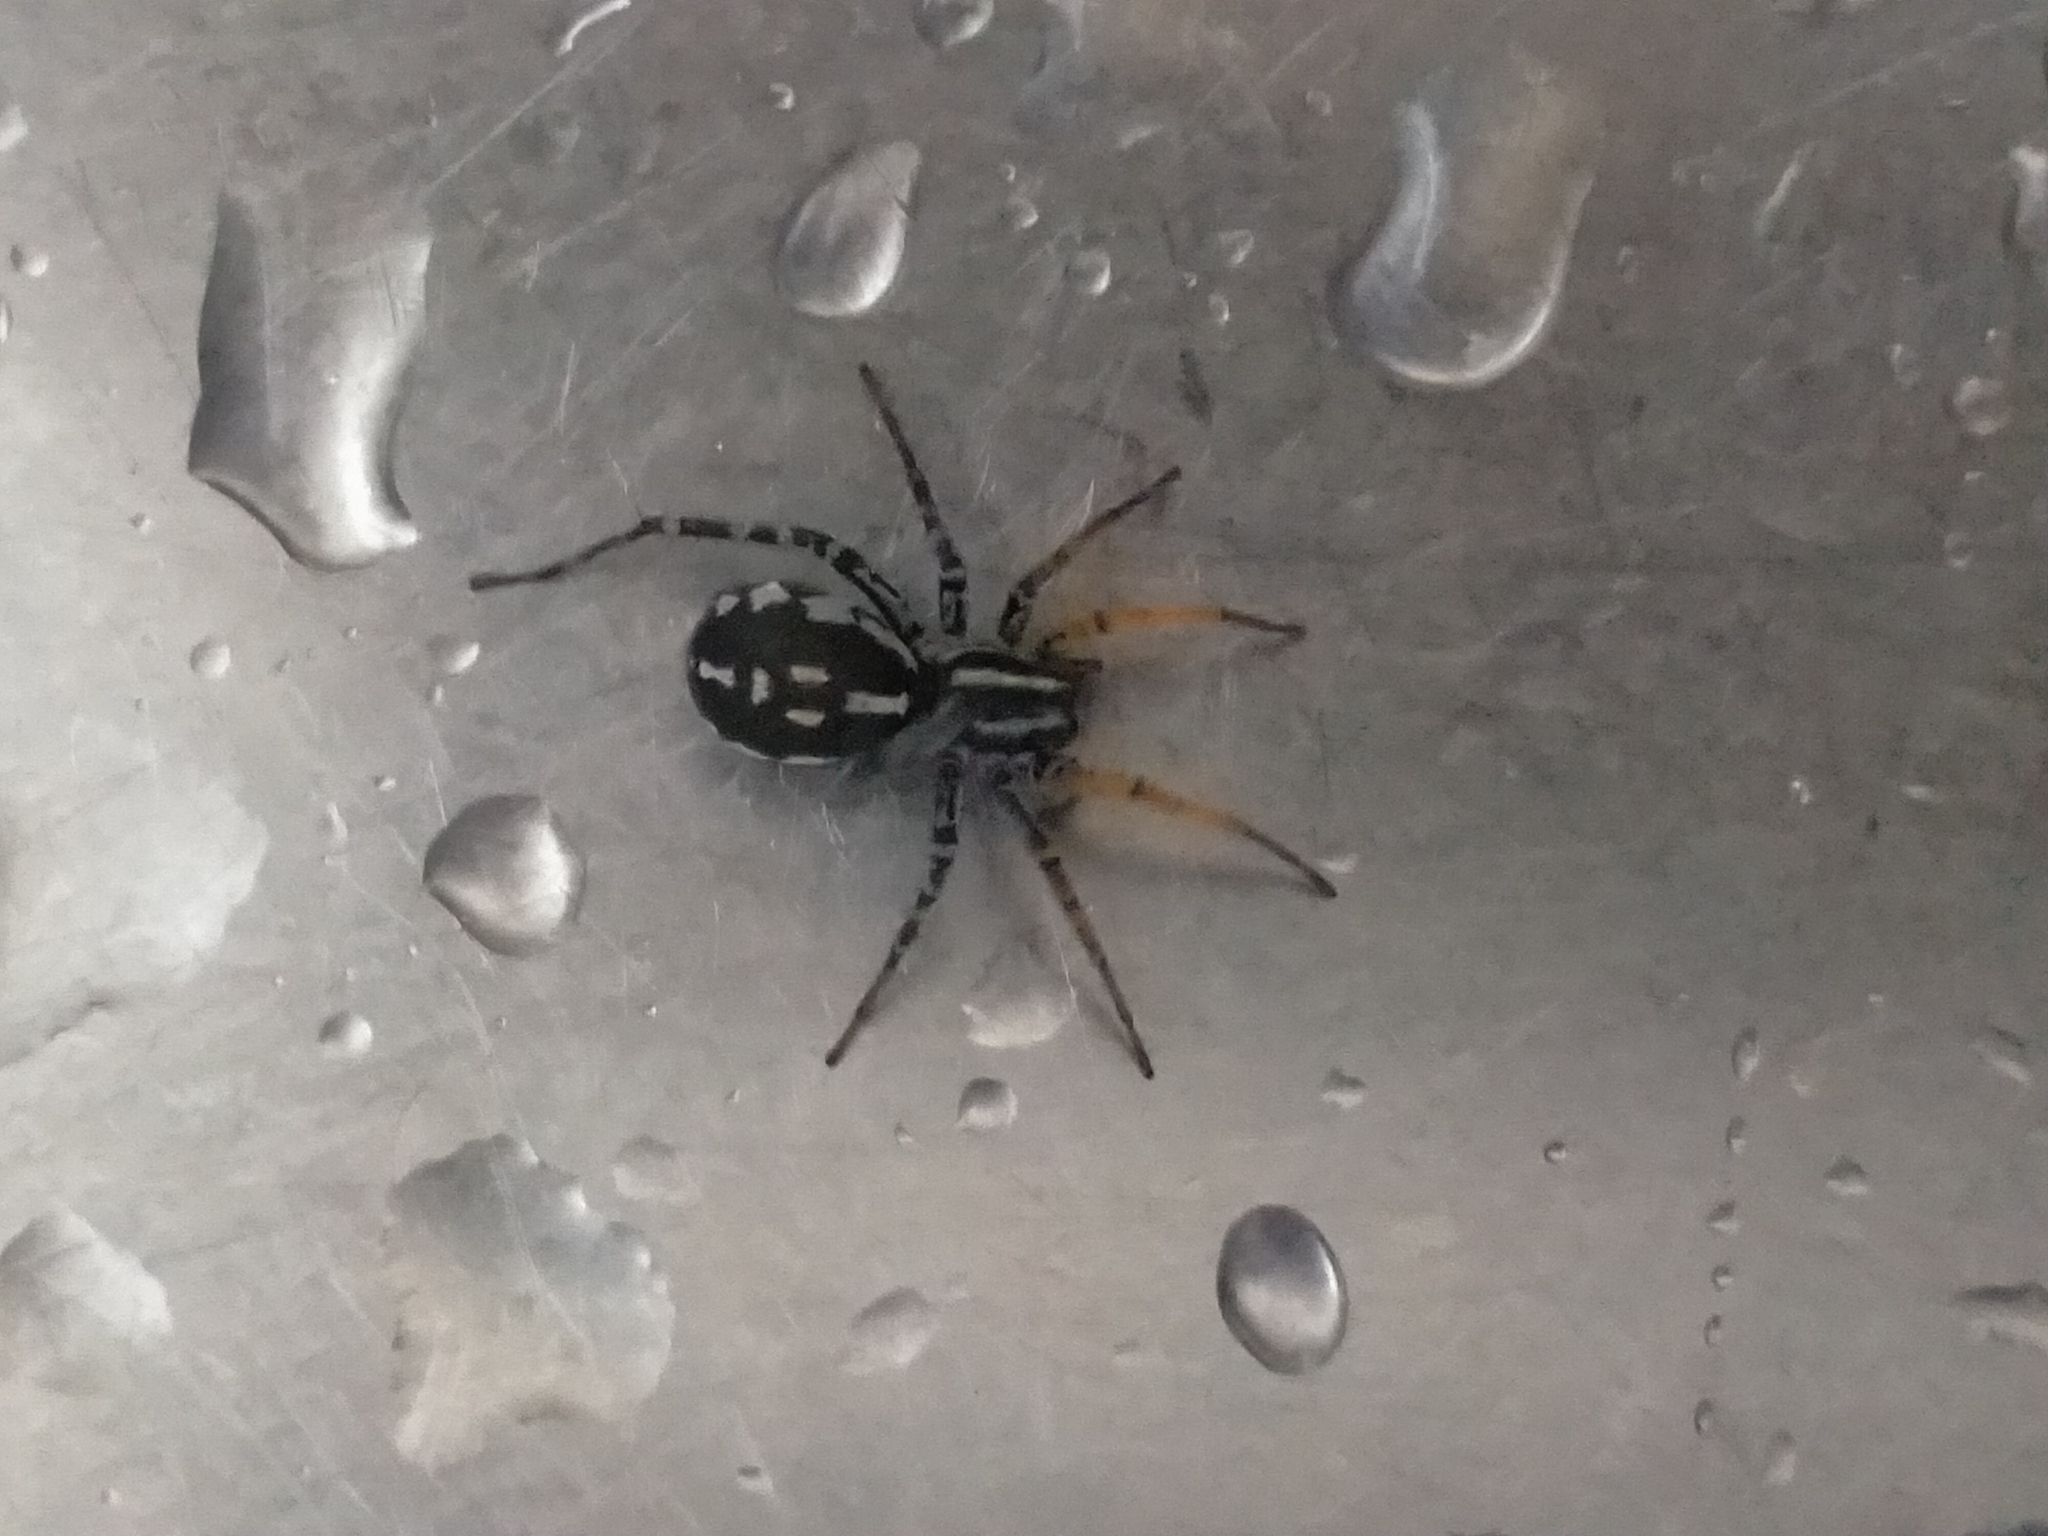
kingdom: Animalia
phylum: Arthropoda
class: Arachnida
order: Araneae
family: Corinnidae
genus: Nyssus
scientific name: Nyssus coloripes
